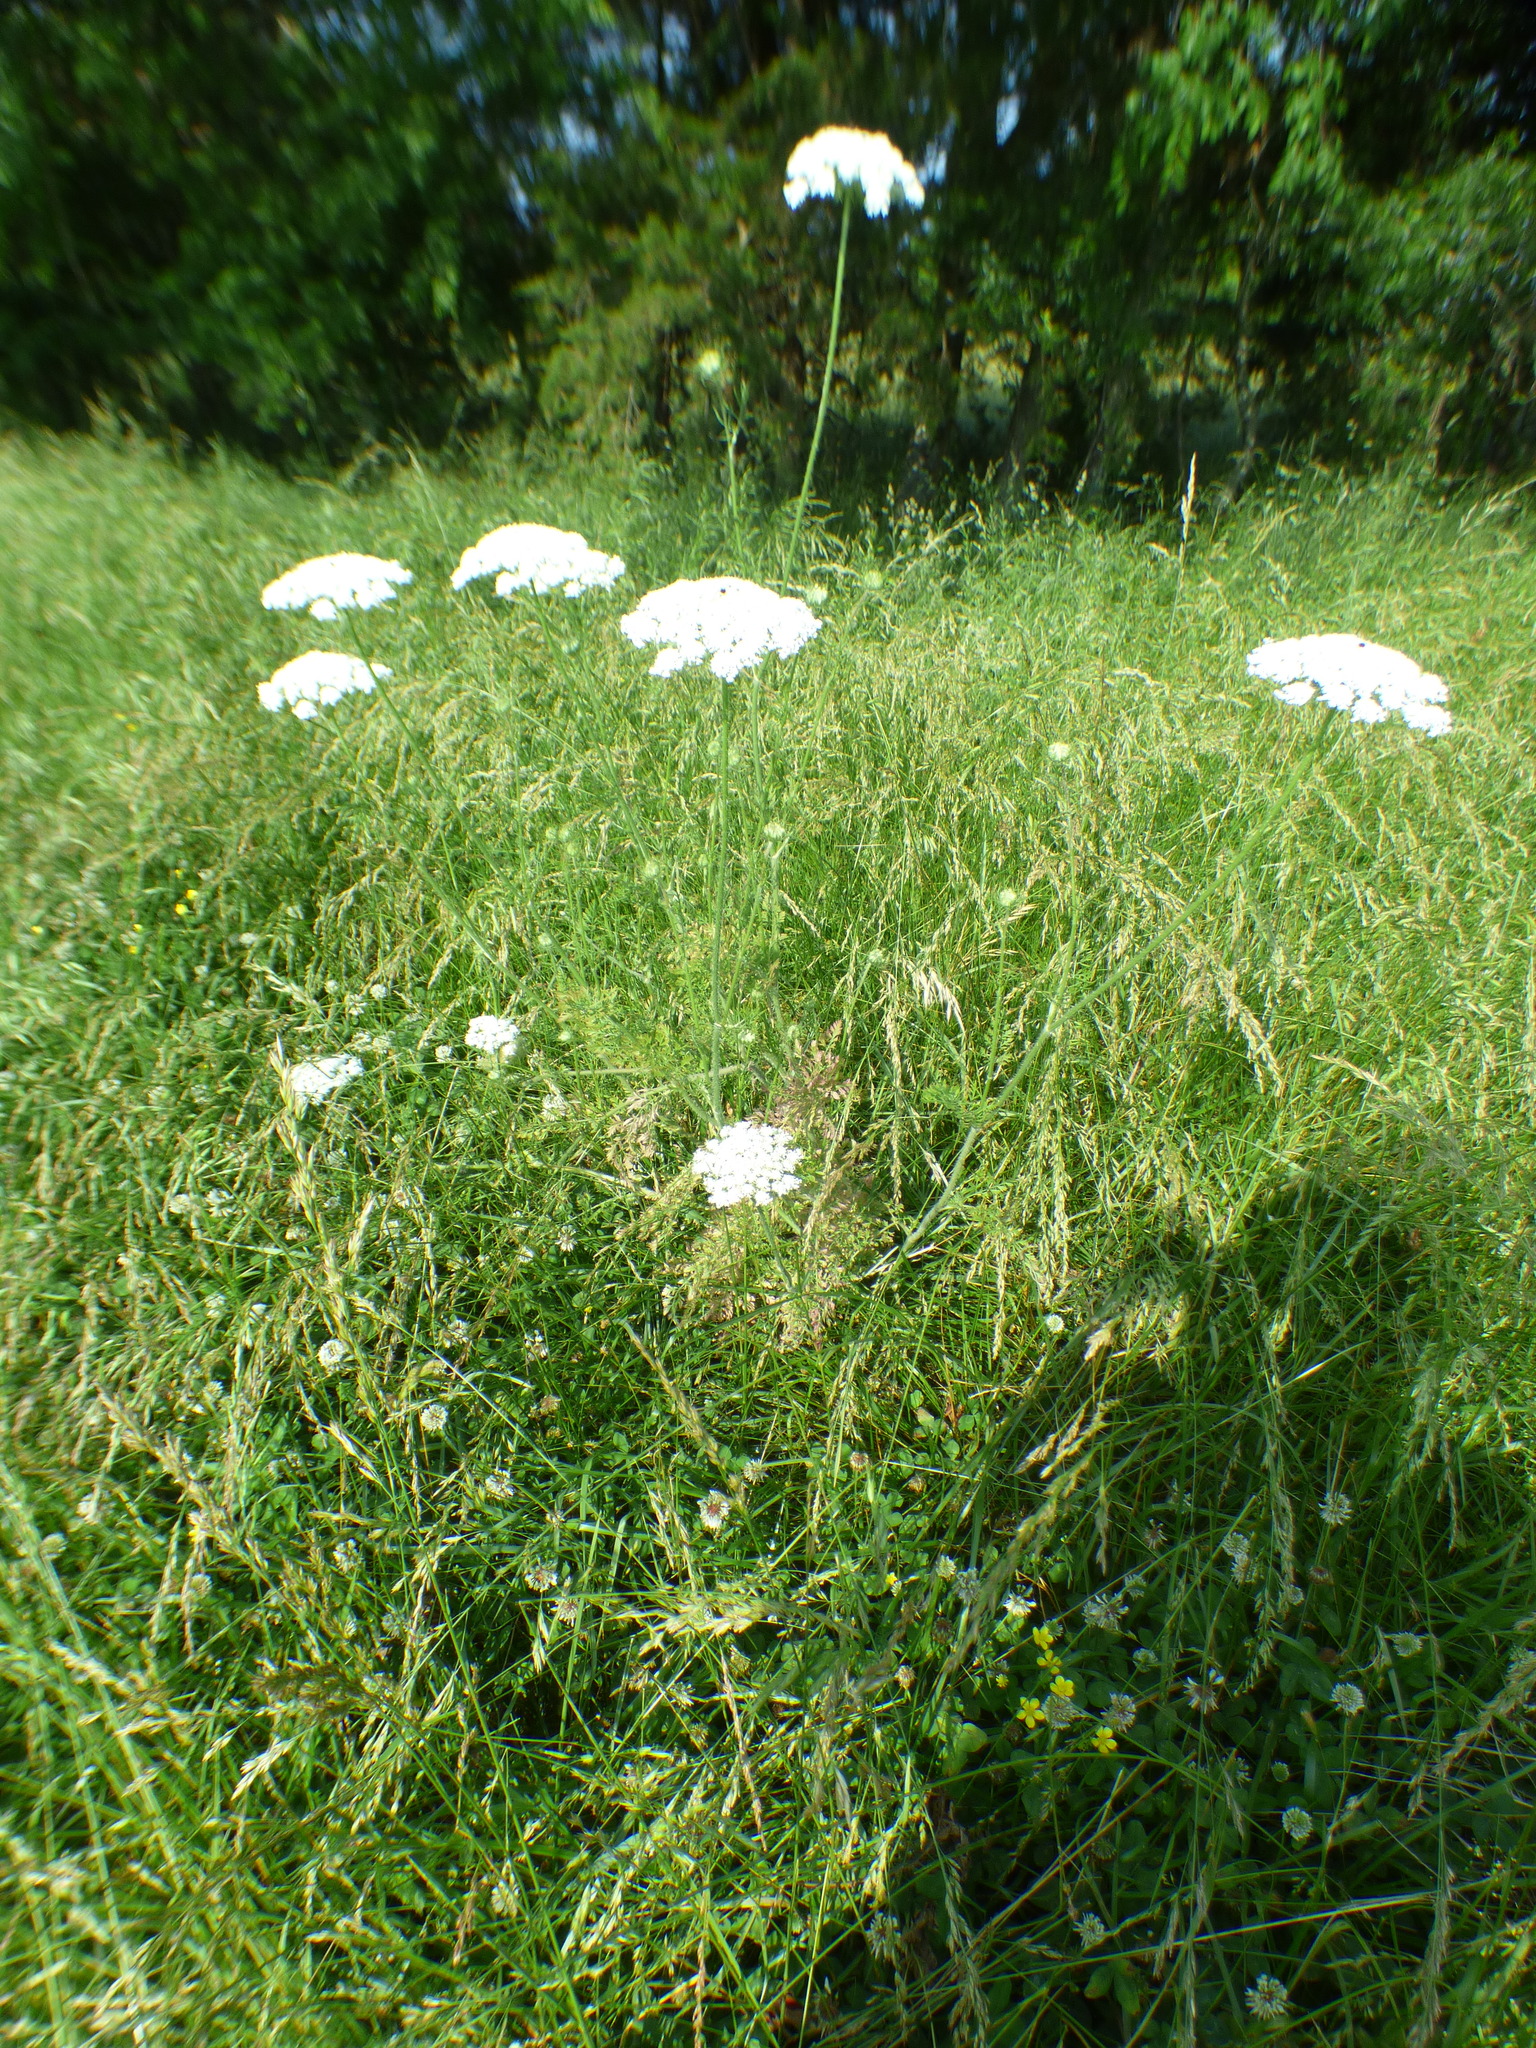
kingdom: Plantae
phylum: Tracheophyta
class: Magnoliopsida
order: Apiales
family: Apiaceae
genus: Daucus
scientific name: Daucus carota
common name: Wild carrot
